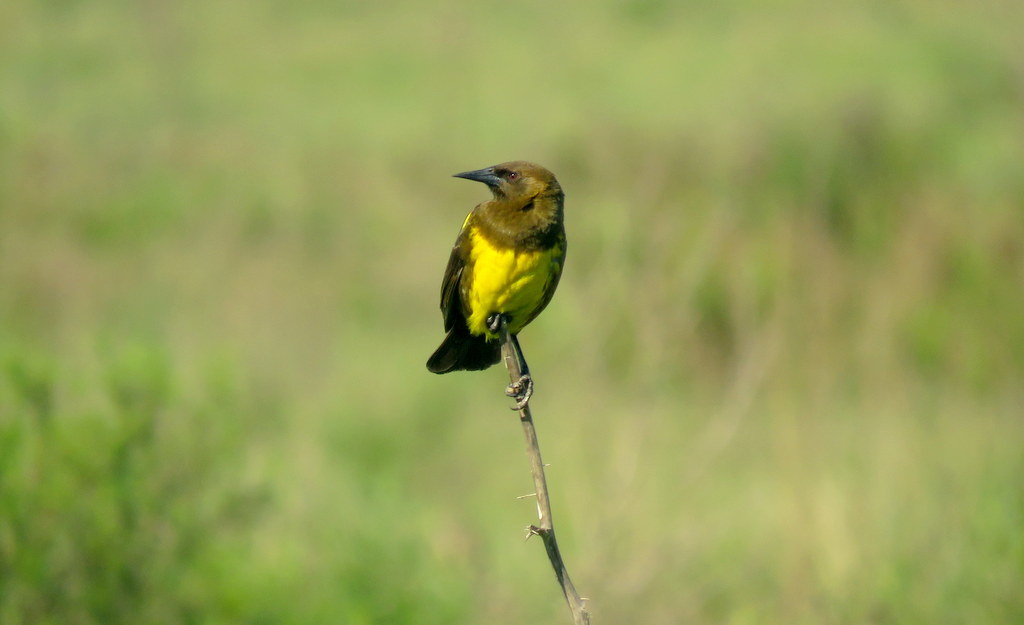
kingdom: Animalia
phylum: Chordata
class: Aves
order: Passeriformes
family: Icteridae
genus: Pseudoleistes
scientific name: Pseudoleistes virescens
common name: Brown-and-yellow marshbird
